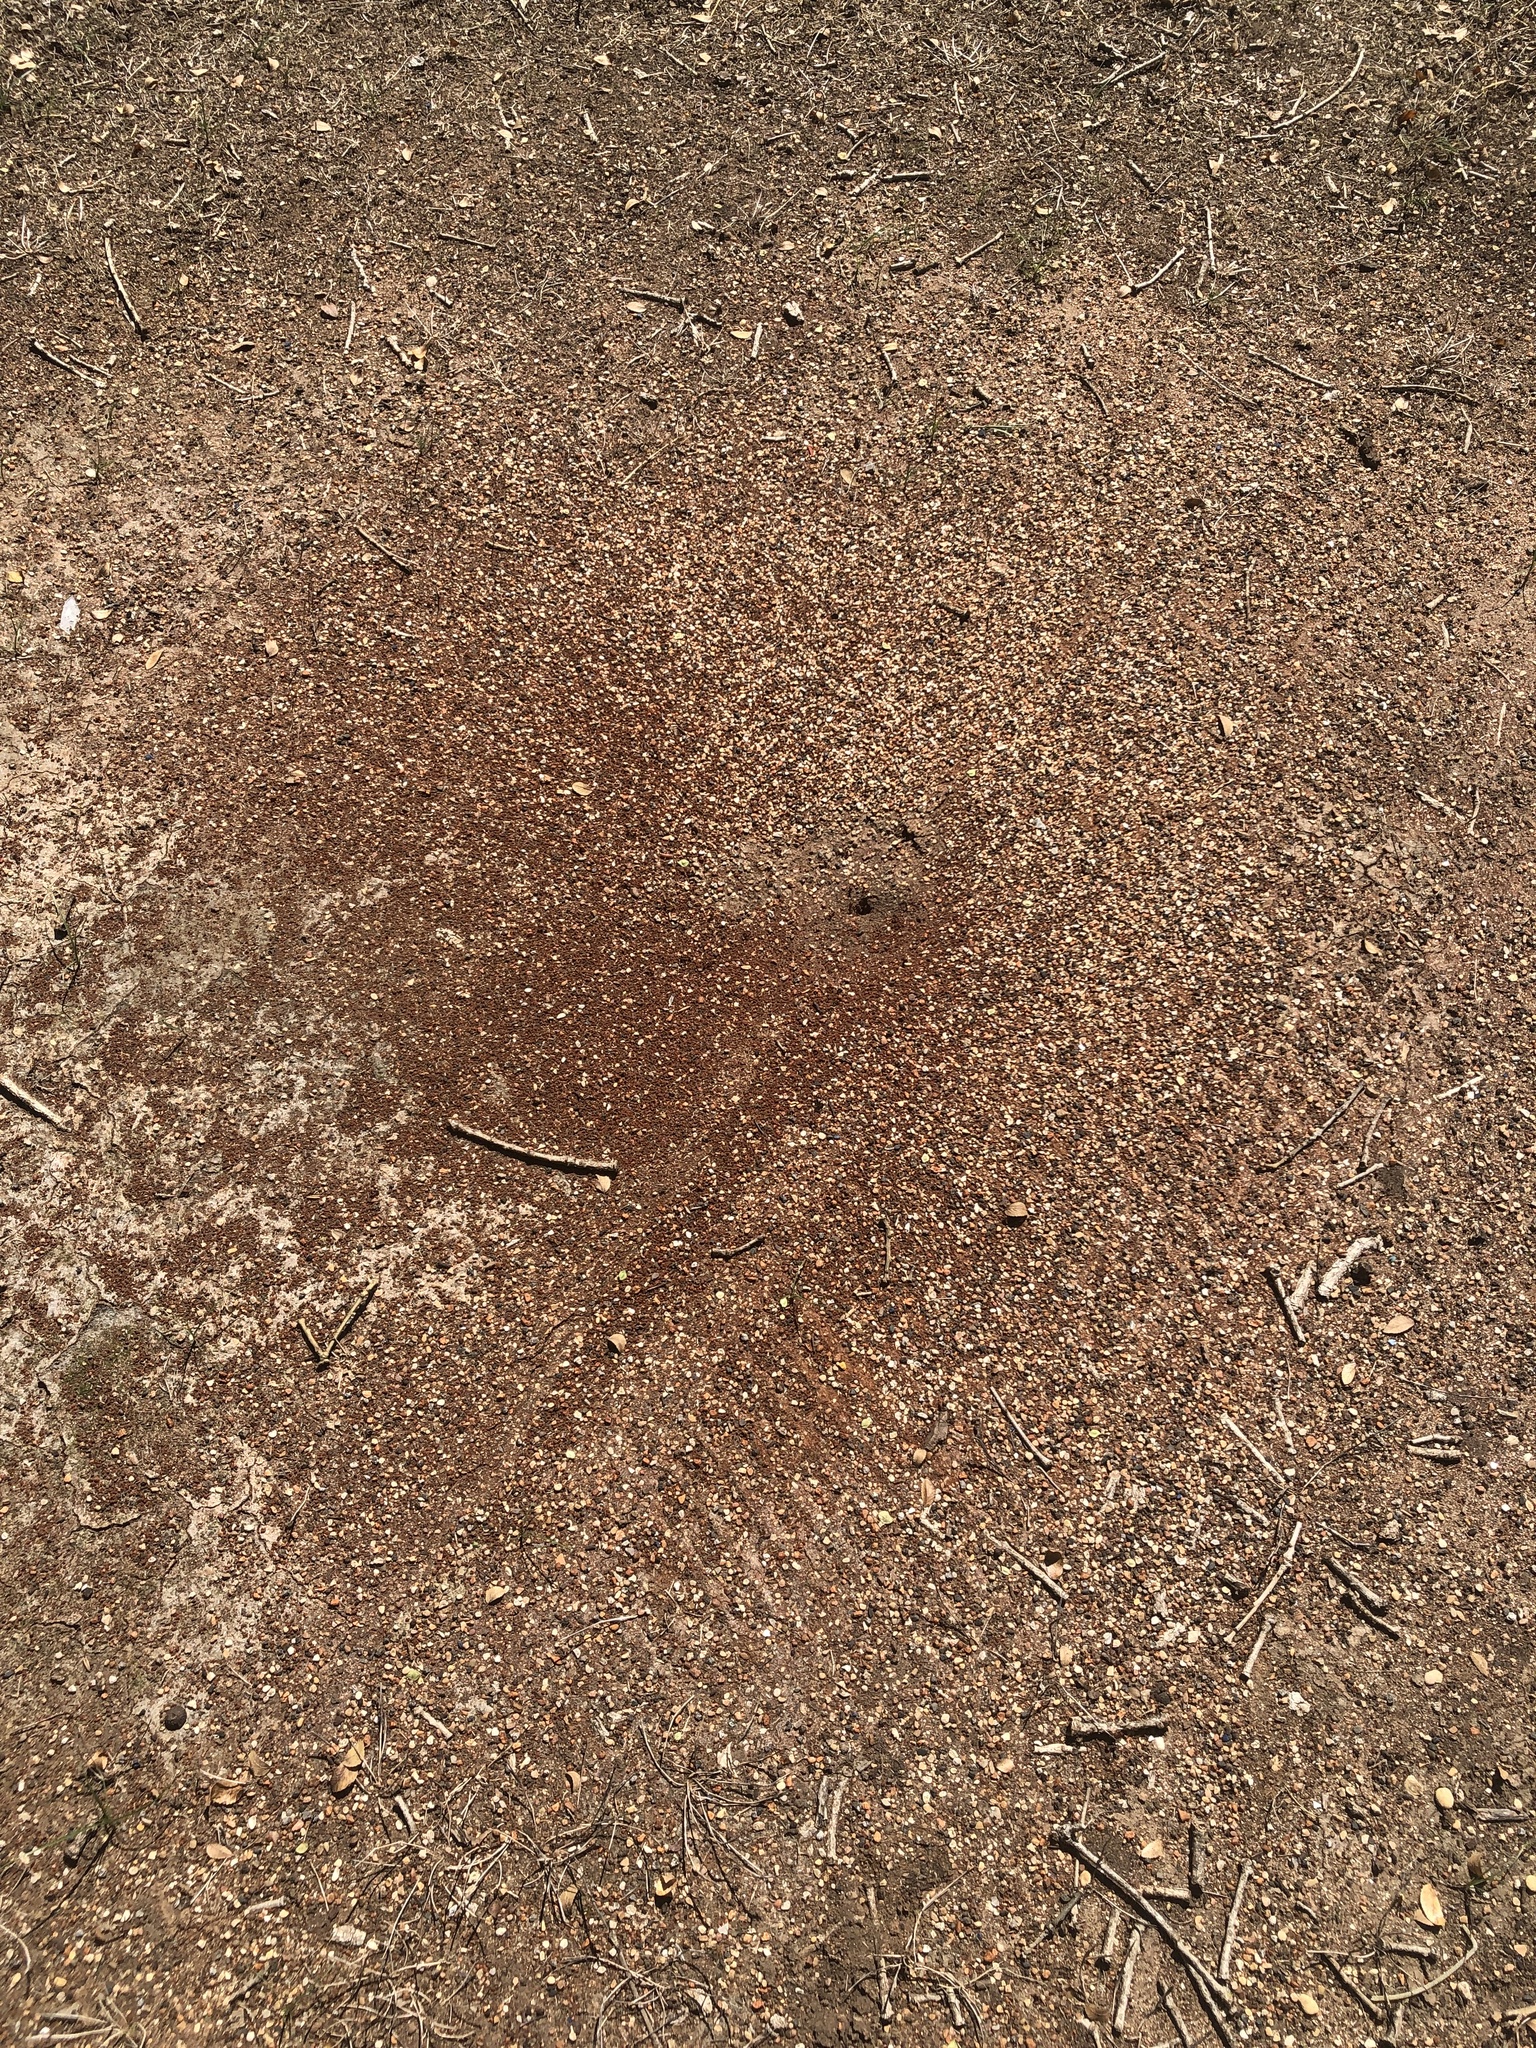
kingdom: Animalia
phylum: Arthropoda
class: Insecta
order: Hymenoptera
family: Formicidae
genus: Pogonomyrmex
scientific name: Pogonomyrmex barbatus
